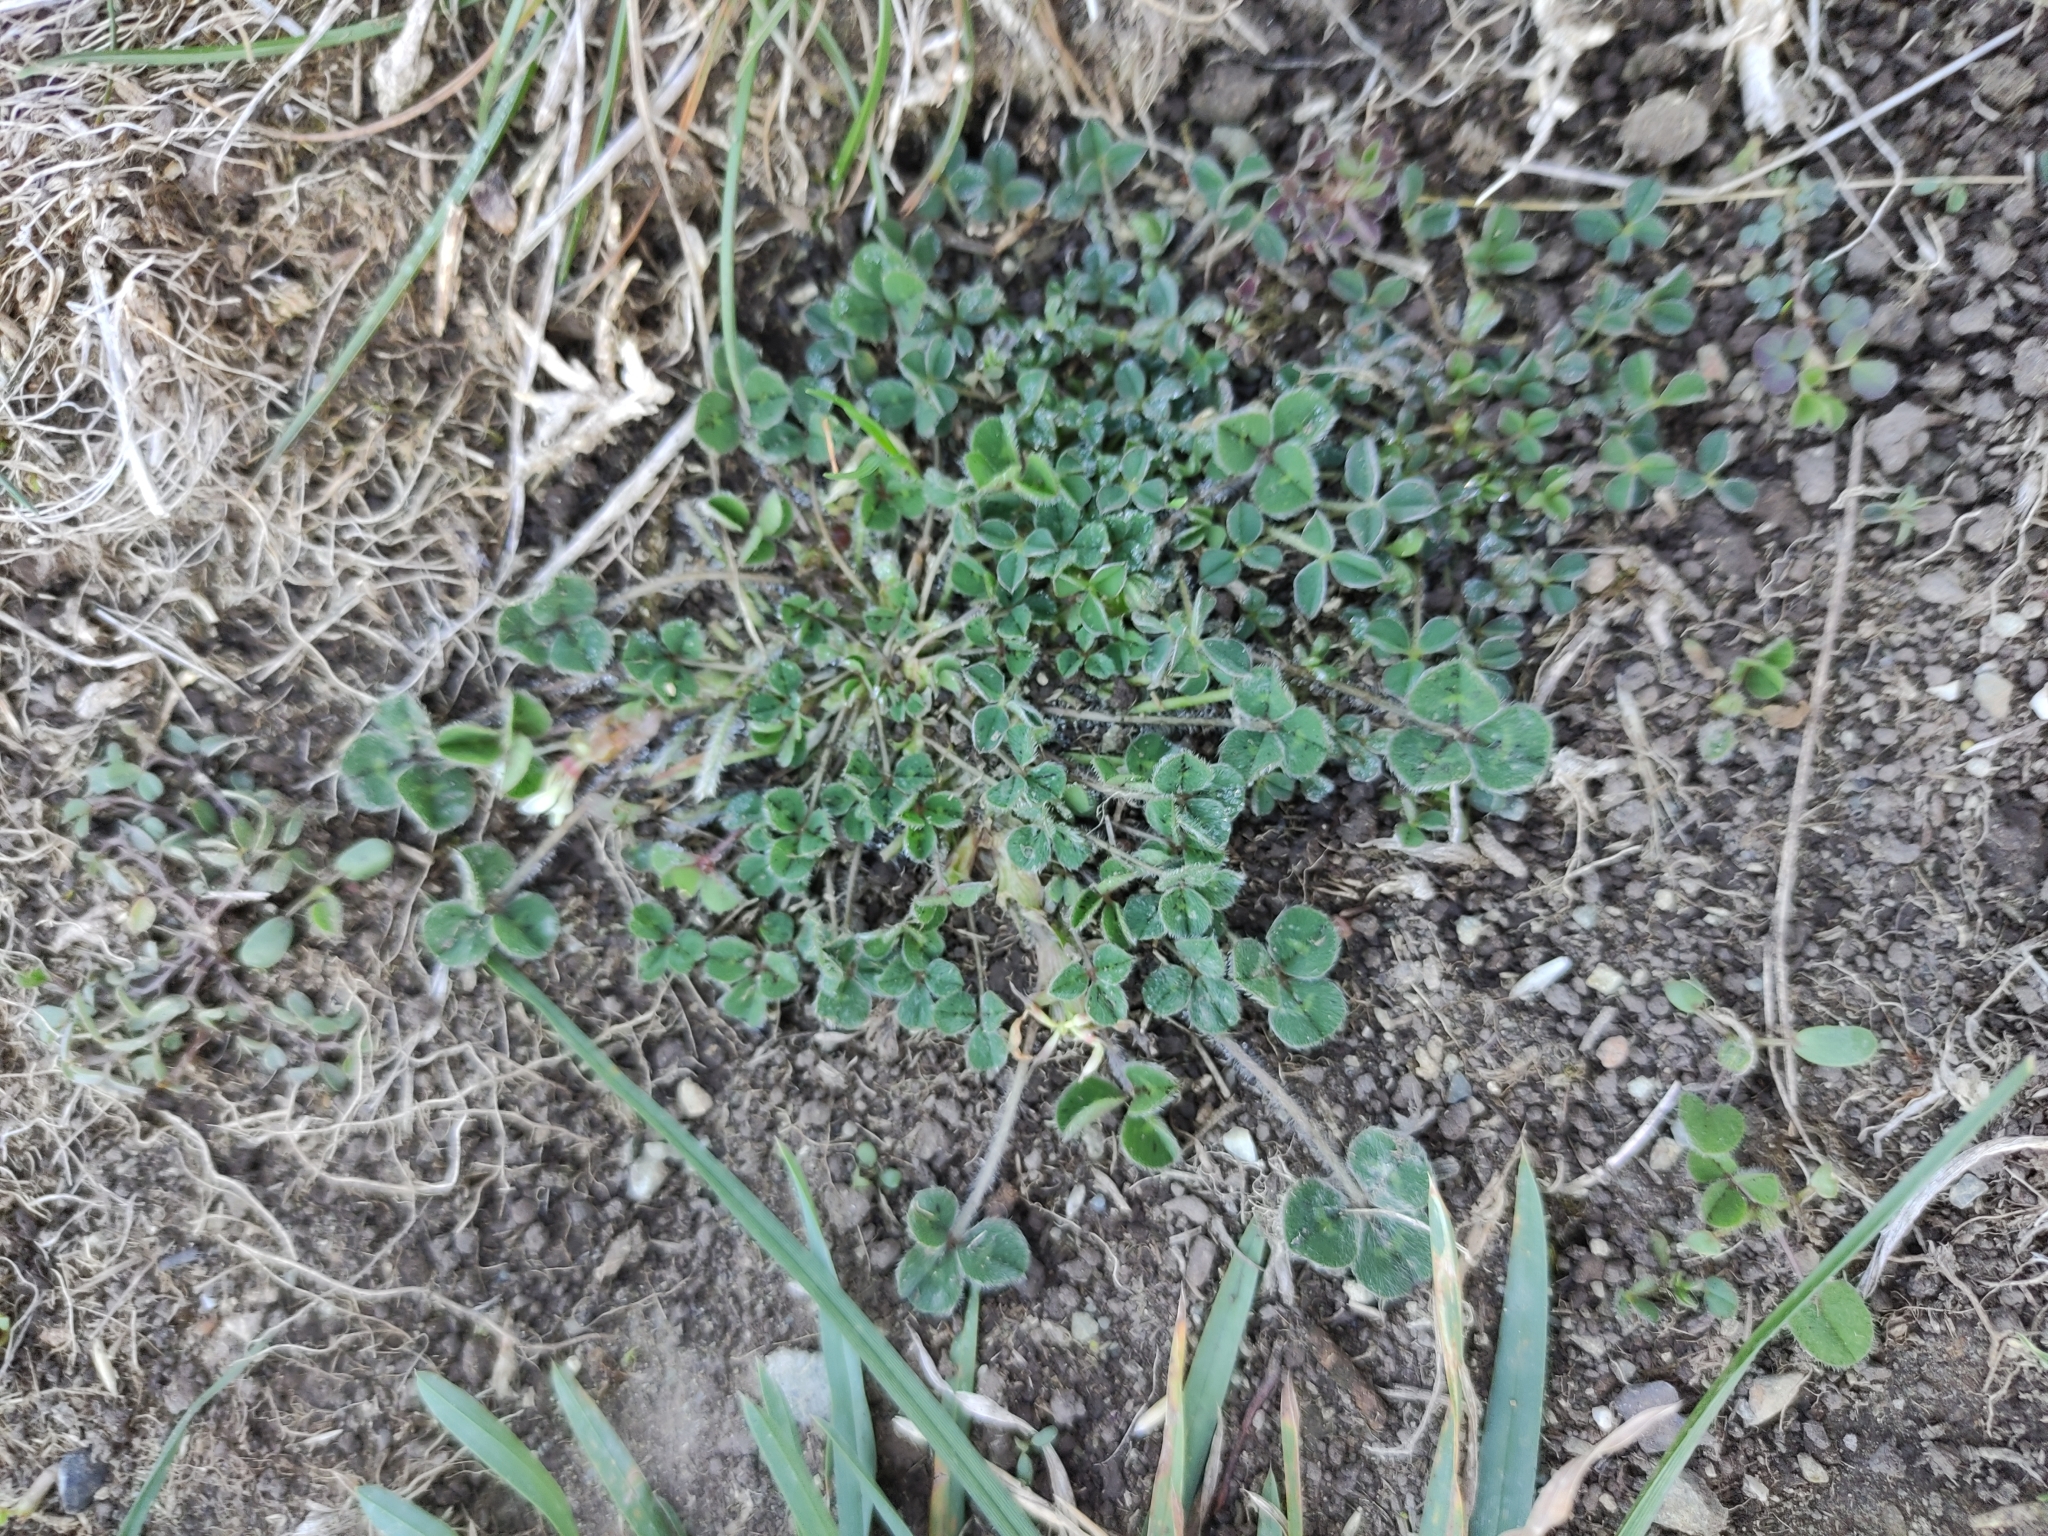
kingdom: Plantae
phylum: Tracheophyta
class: Magnoliopsida
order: Fabales
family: Fabaceae
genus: Trifolium
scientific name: Trifolium subterraneum
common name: Subterranean clover
